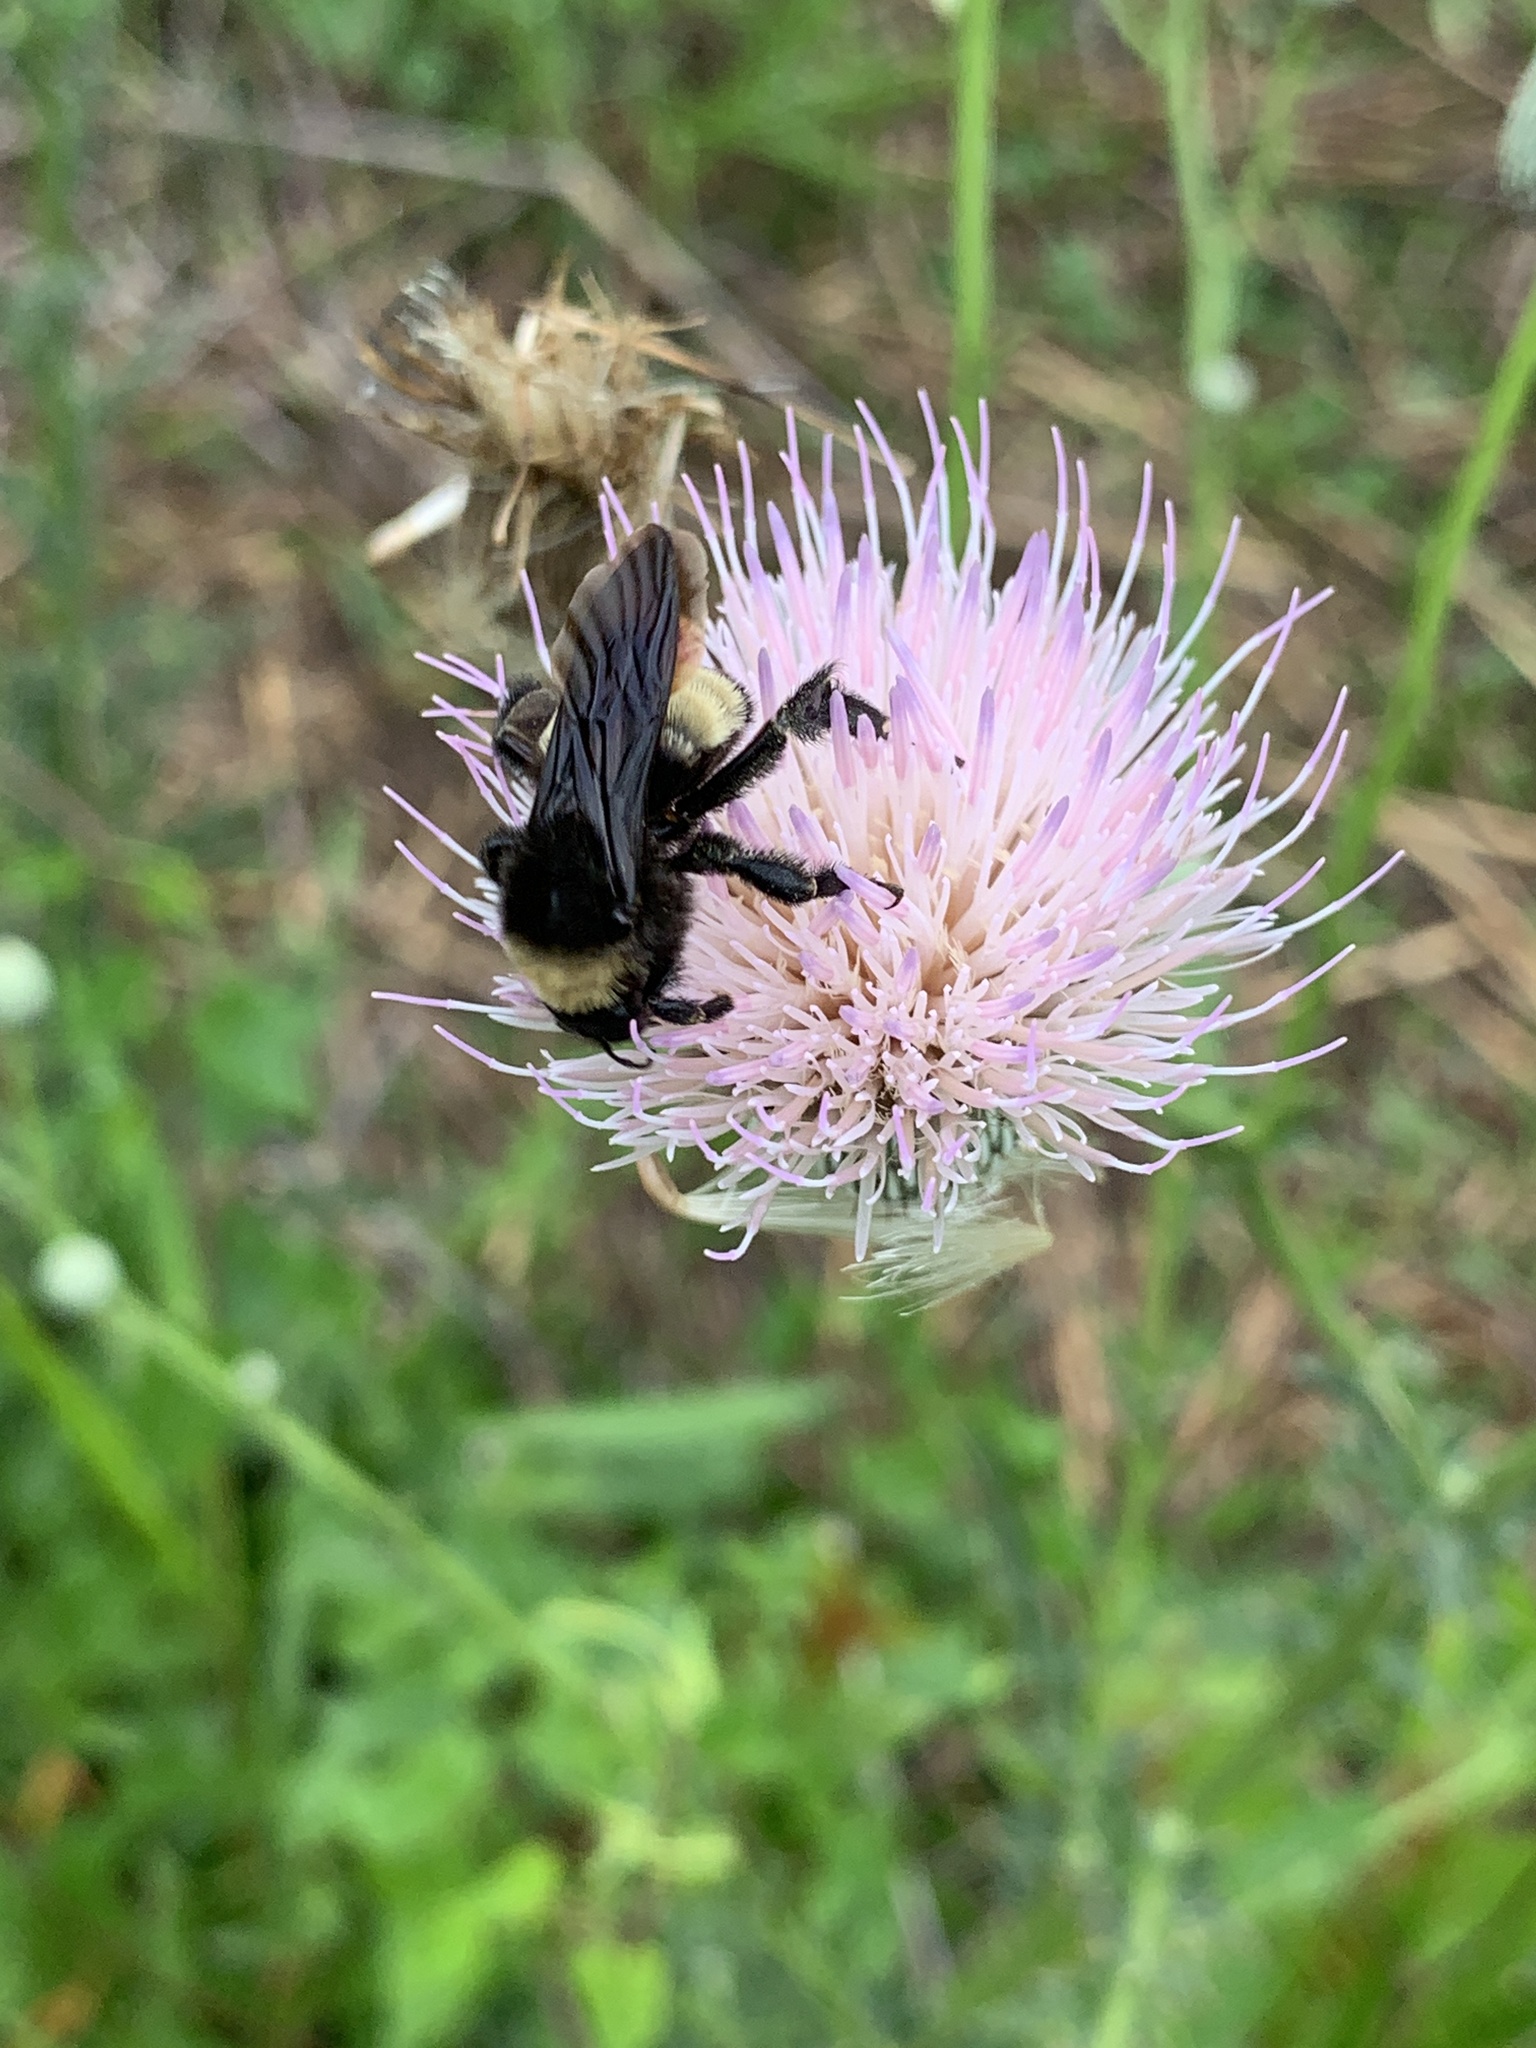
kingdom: Animalia
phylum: Arthropoda
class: Insecta
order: Hymenoptera
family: Apidae
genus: Bombus
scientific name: Bombus pensylvanicus
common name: Bumble bee
